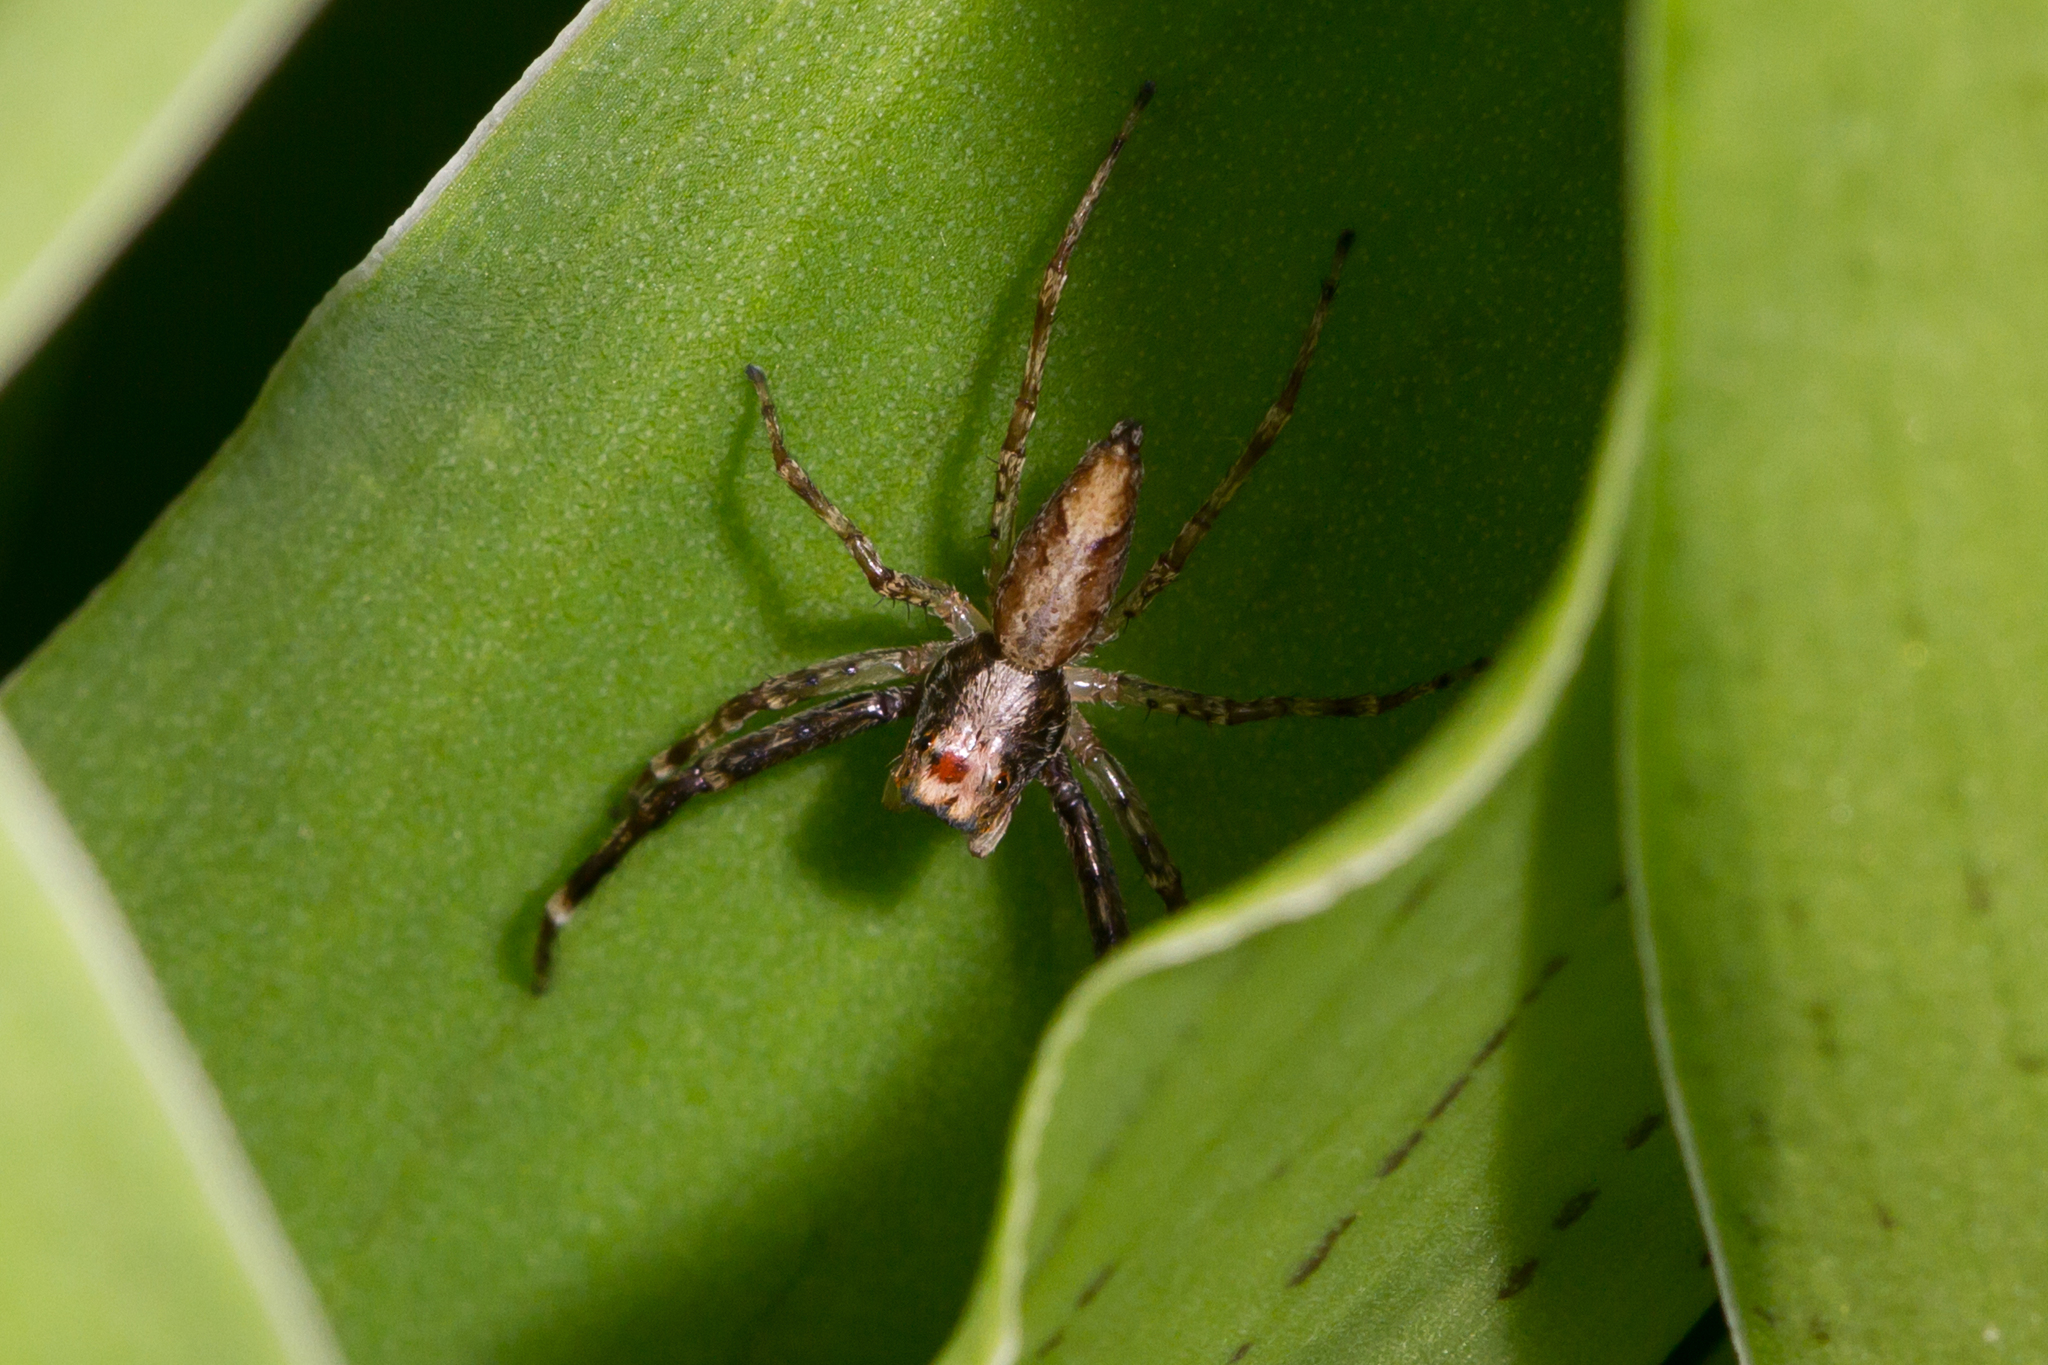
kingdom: Animalia
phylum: Arthropoda
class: Arachnida
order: Araneae
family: Salticidae
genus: Helpis
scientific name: Helpis minitabunda
